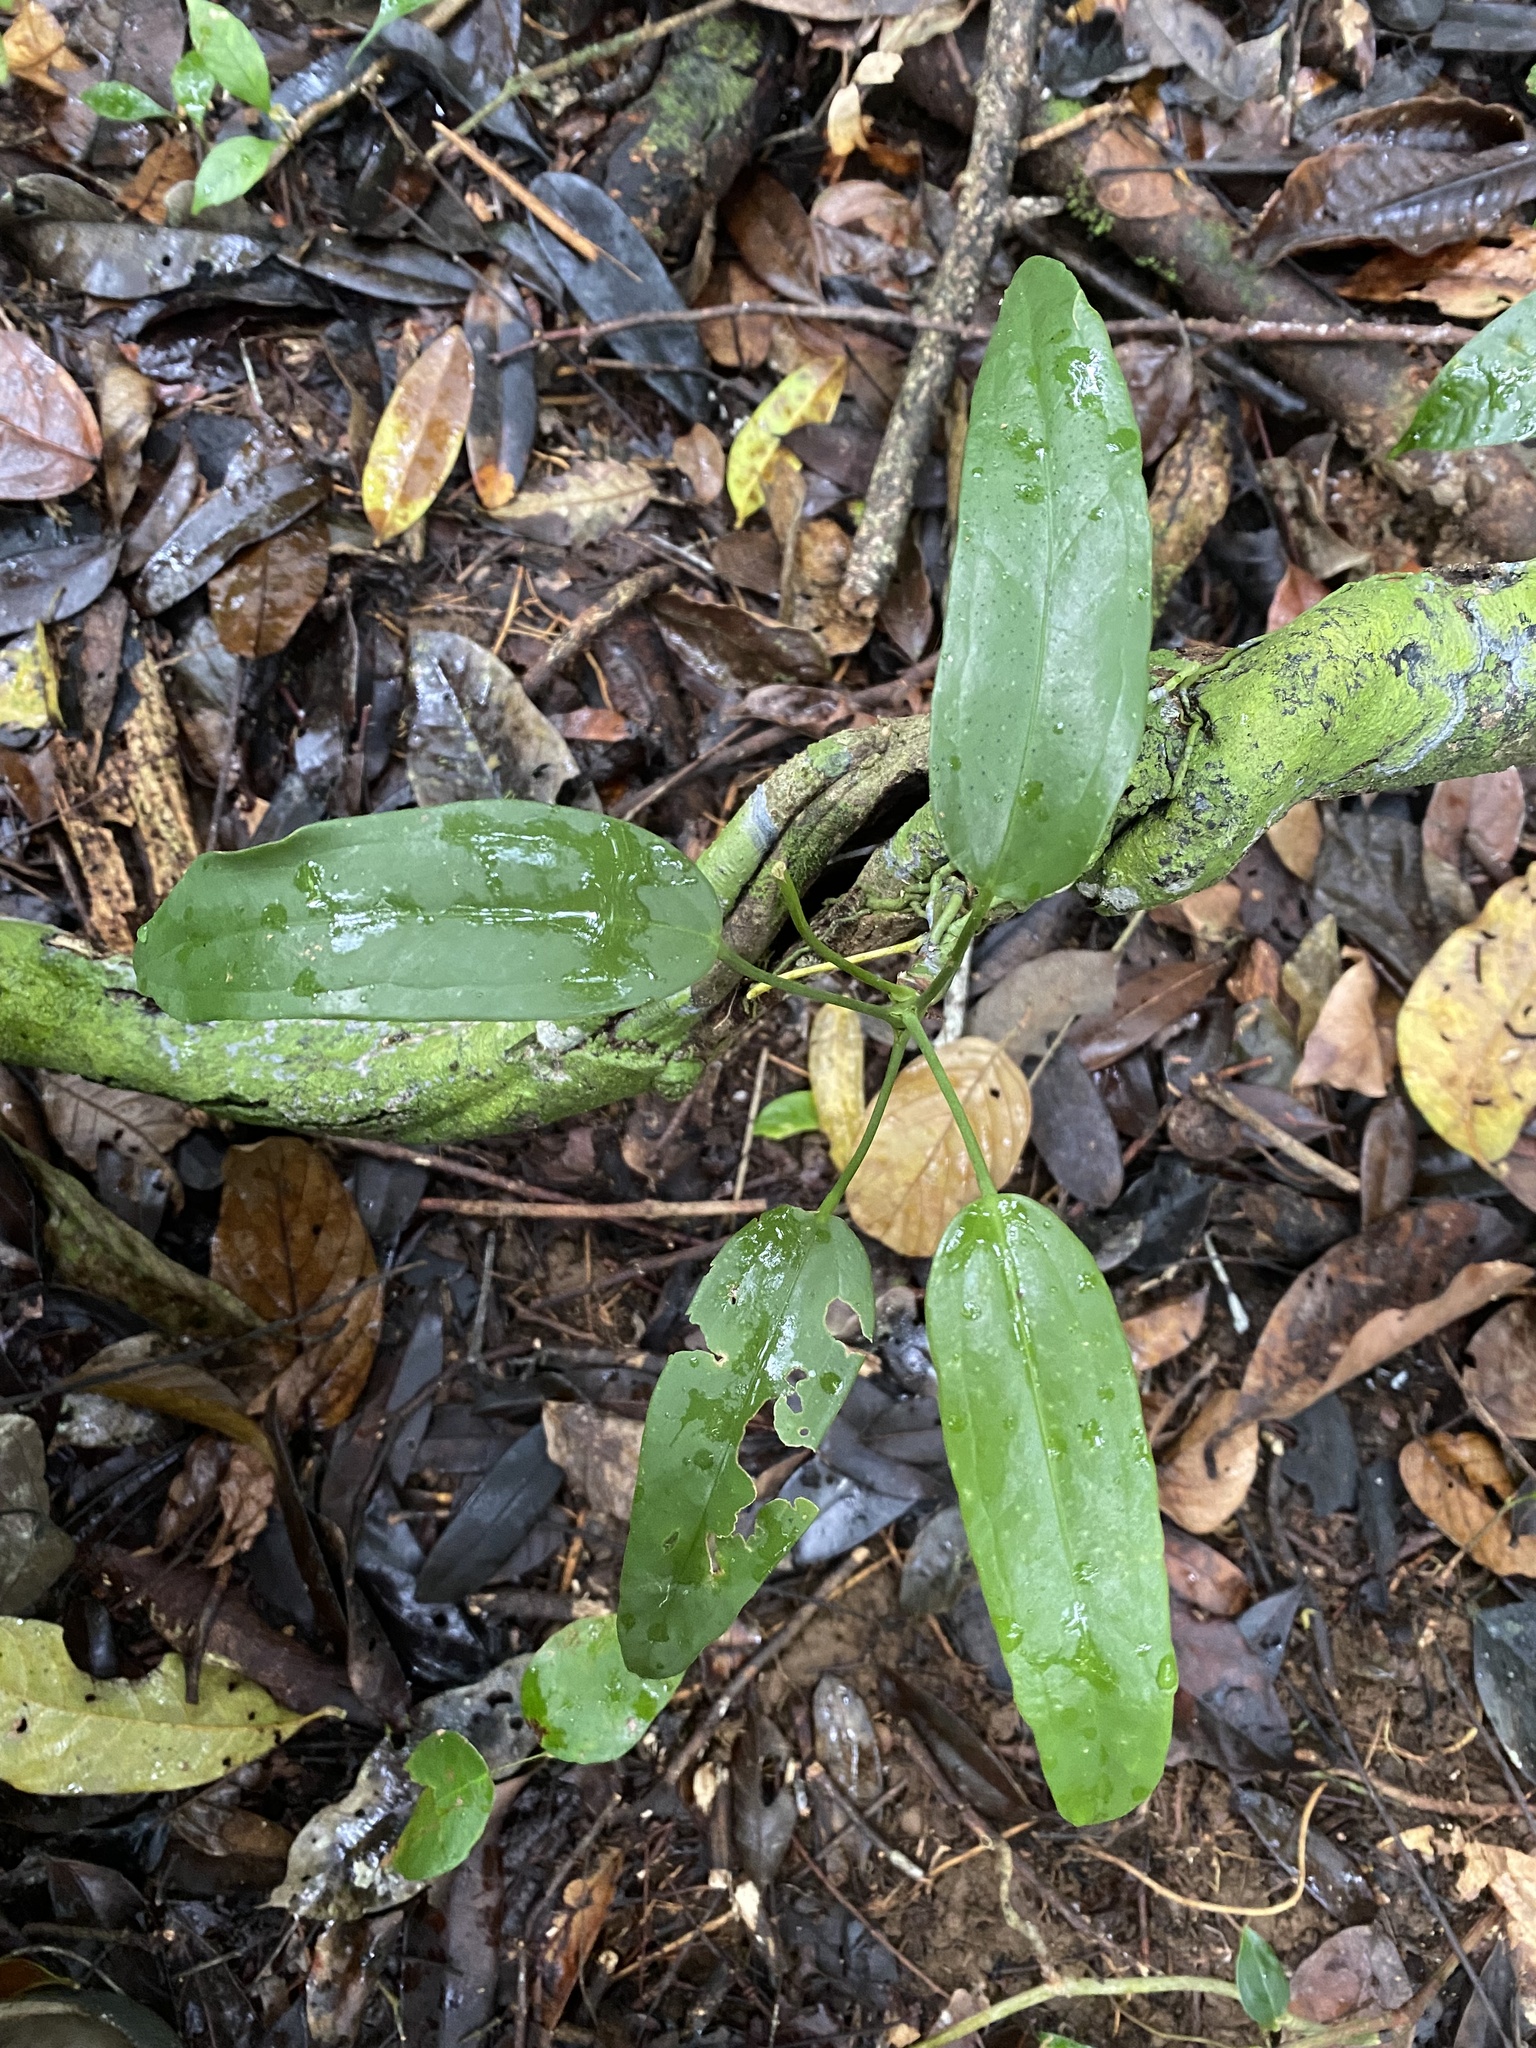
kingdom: Plantae
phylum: Tracheophyta
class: Liliopsida
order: Alismatales
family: Araceae
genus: Anthurium
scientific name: Anthurium
